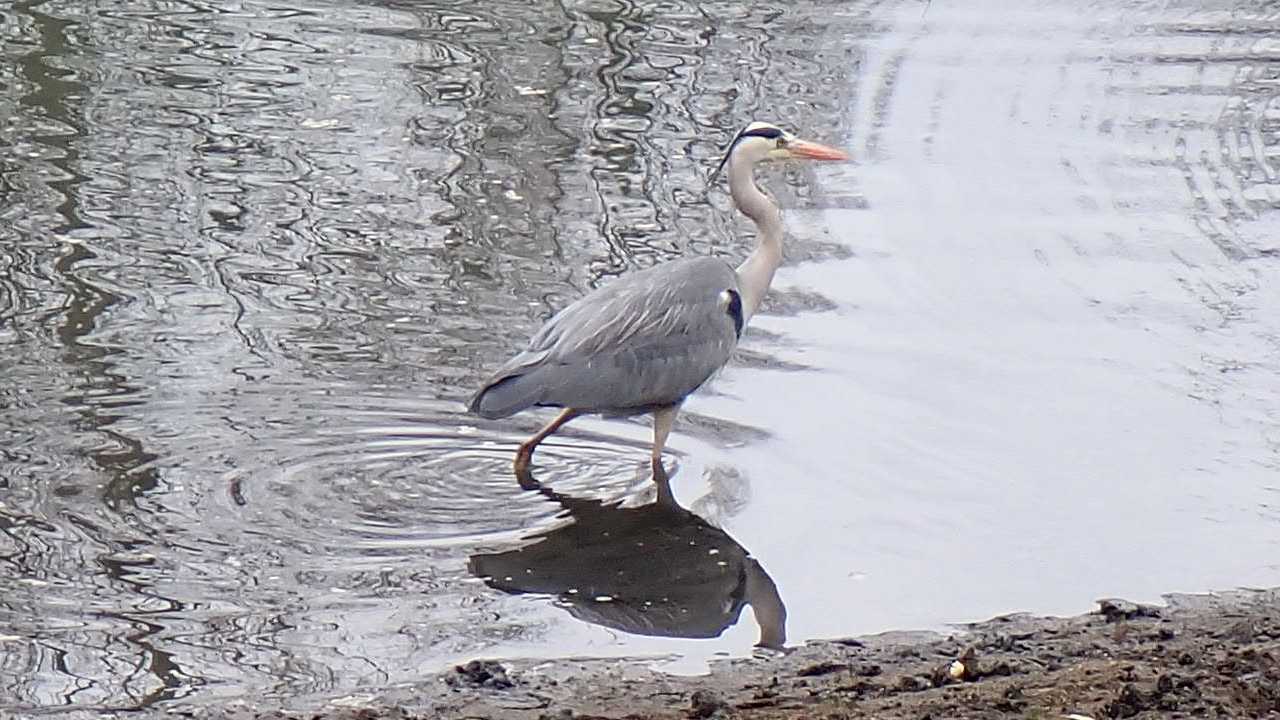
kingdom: Animalia
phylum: Chordata
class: Aves
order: Pelecaniformes
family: Ardeidae
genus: Ardea
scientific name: Ardea cinerea
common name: Grey heron
